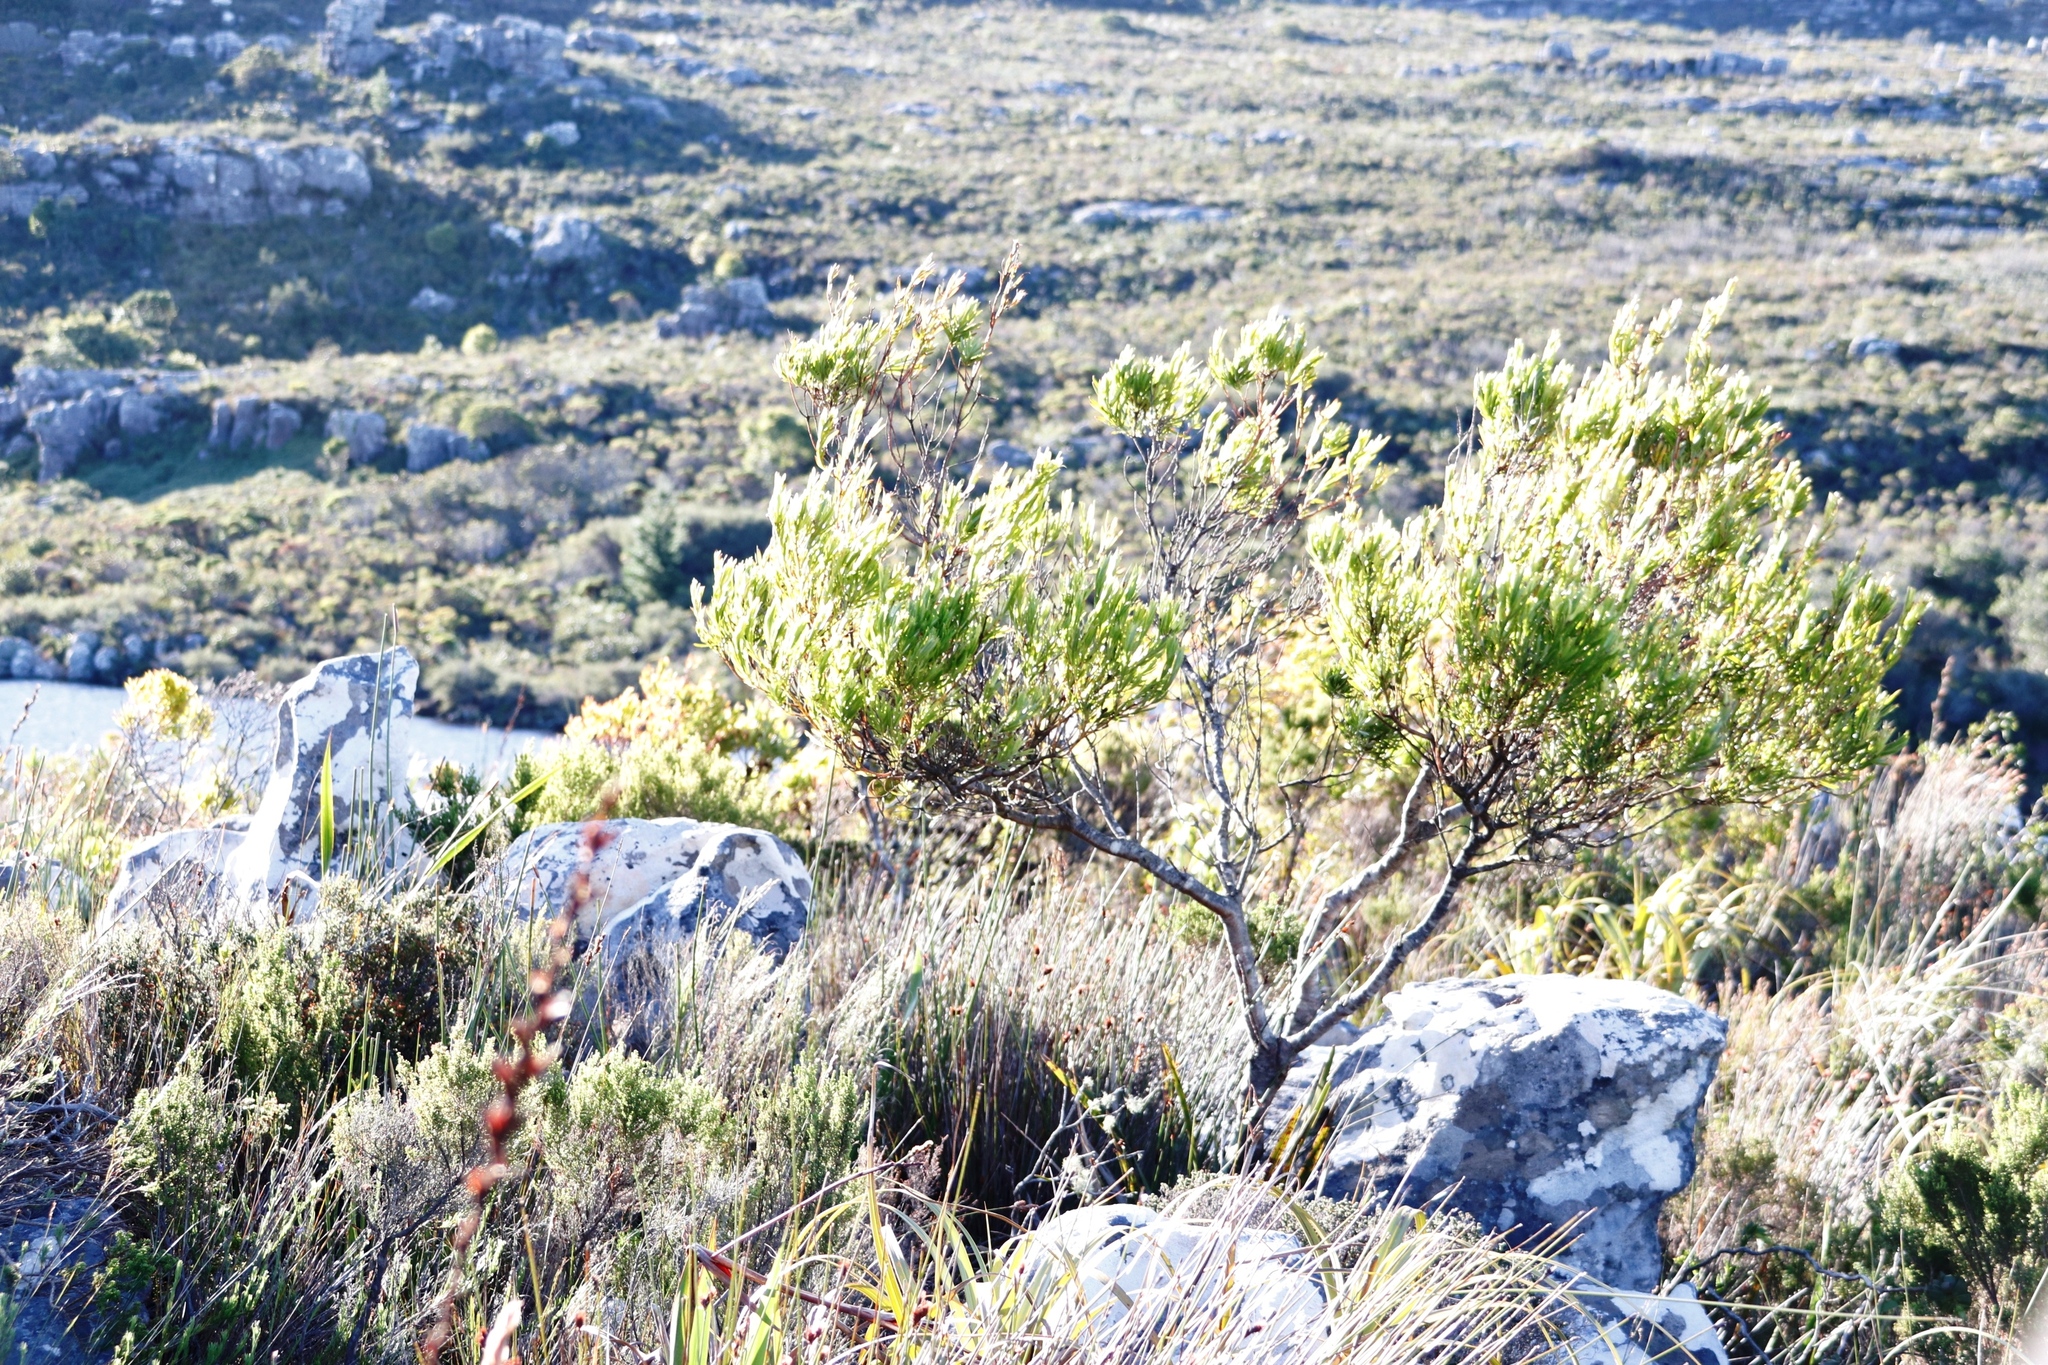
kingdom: Plantae
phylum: Tracheophyta
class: Magnoliopsida
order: Proteales
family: Proteaceae
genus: Leucadendron
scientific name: Leucadendron xanthoconus
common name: Sickle-leaf conebush
